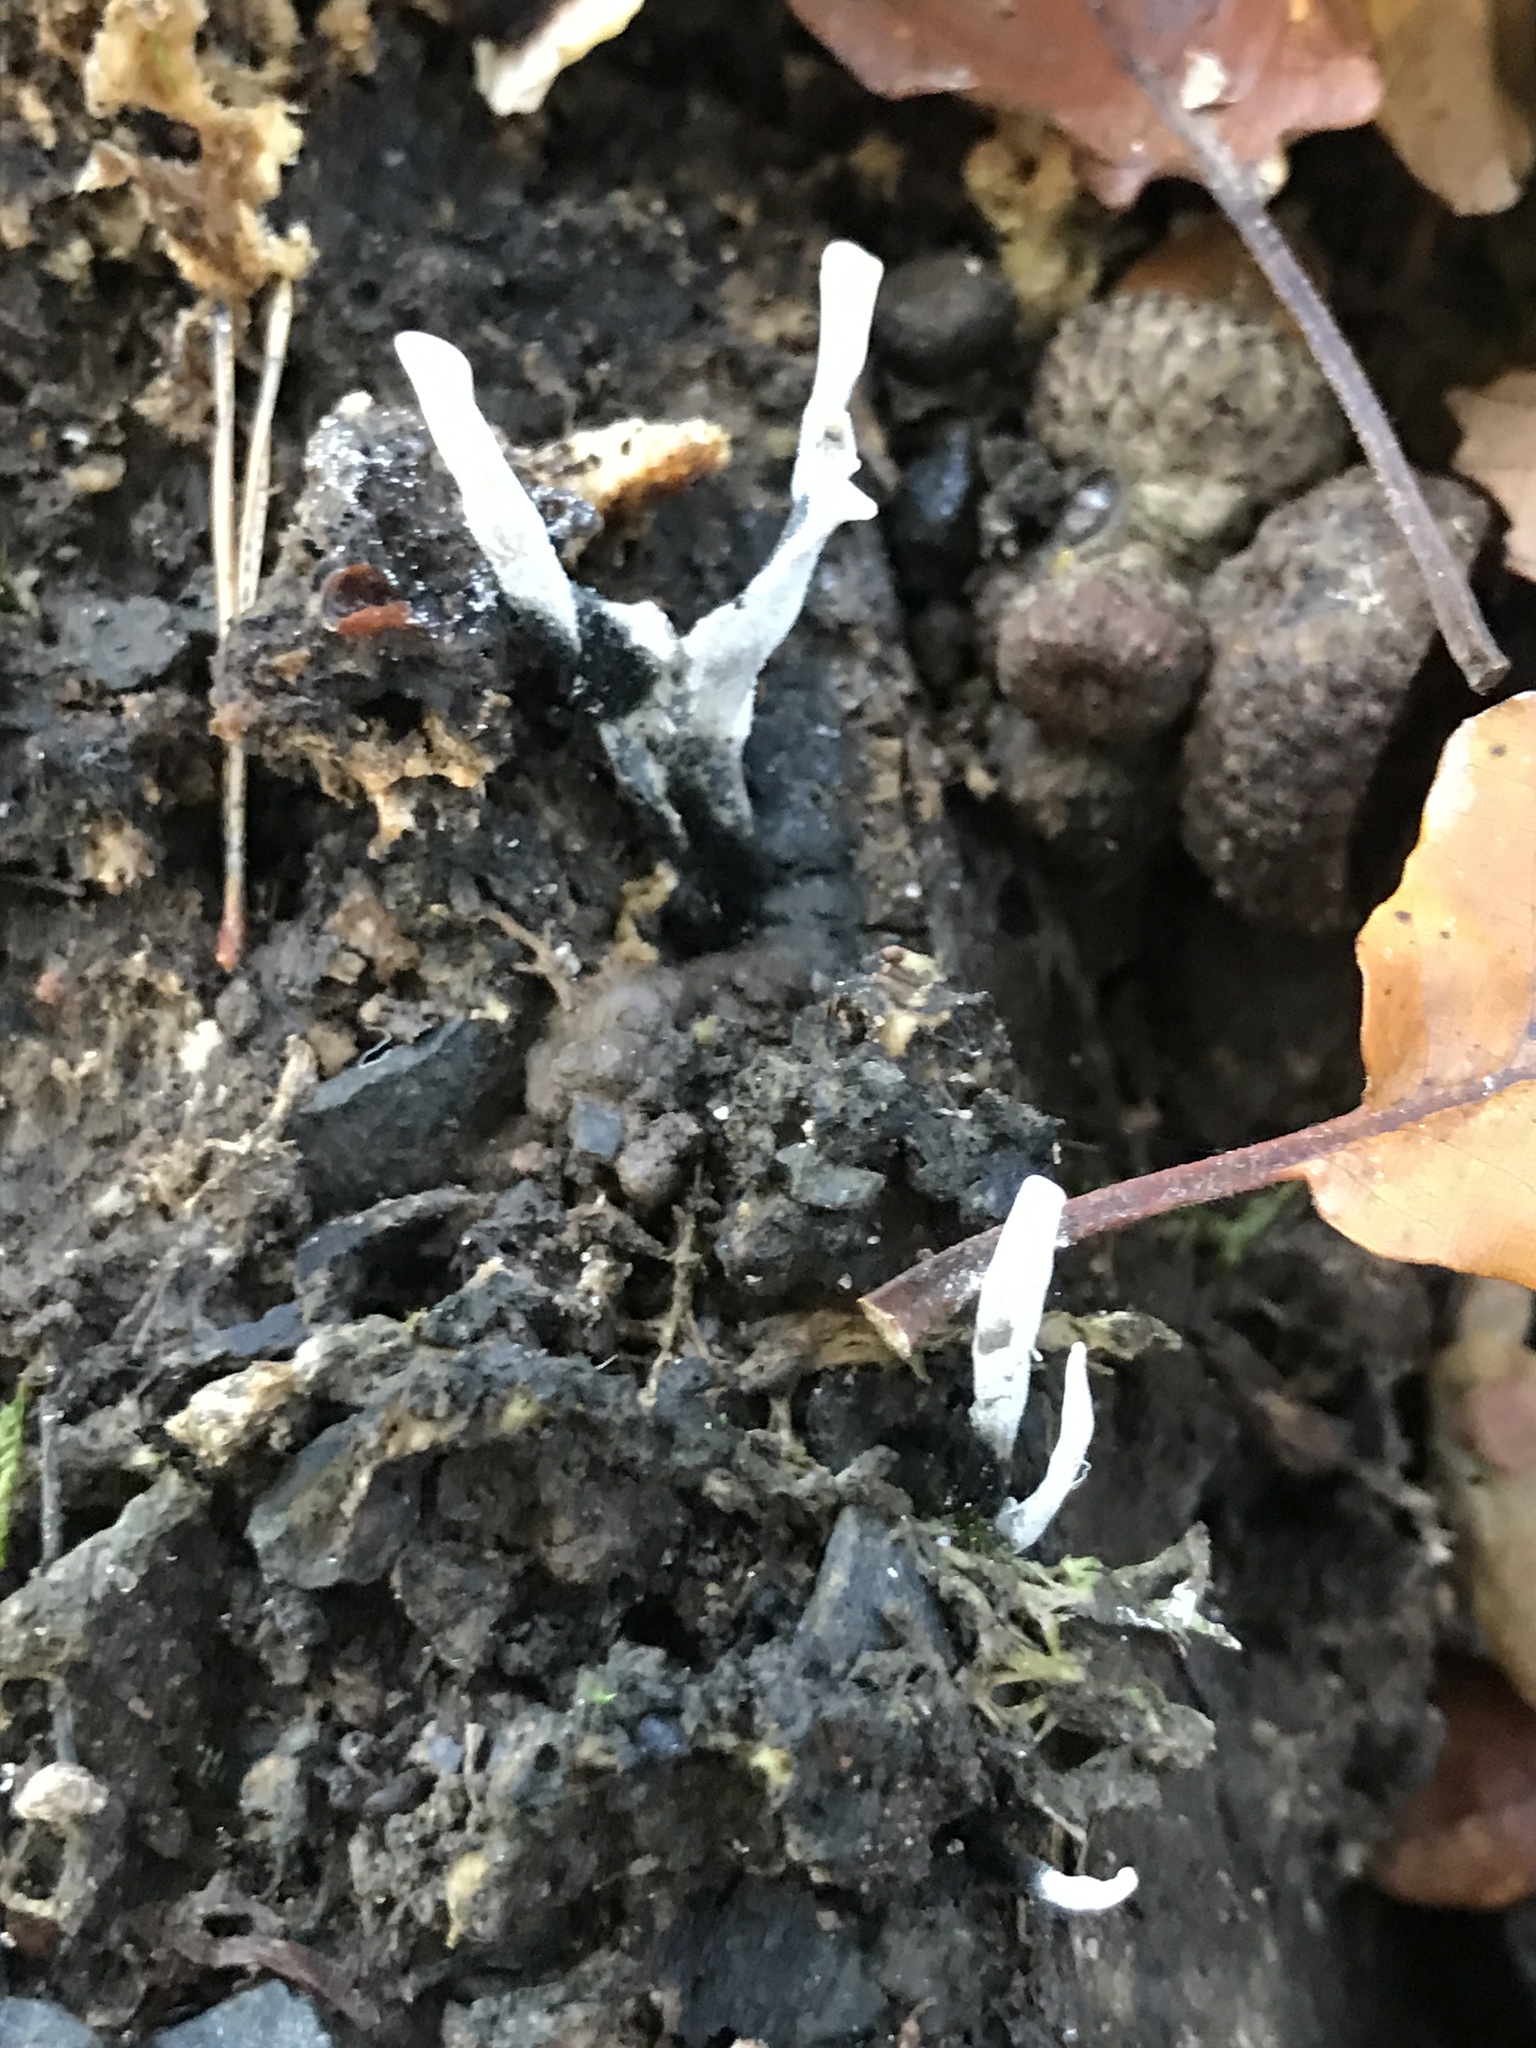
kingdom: Fungi
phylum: Ascomycota
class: Sordariomycetes
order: Xylariales
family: Xylariaceae
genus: Xylaria
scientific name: Xylaria hypoxylon
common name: Candle-snuff fungus
